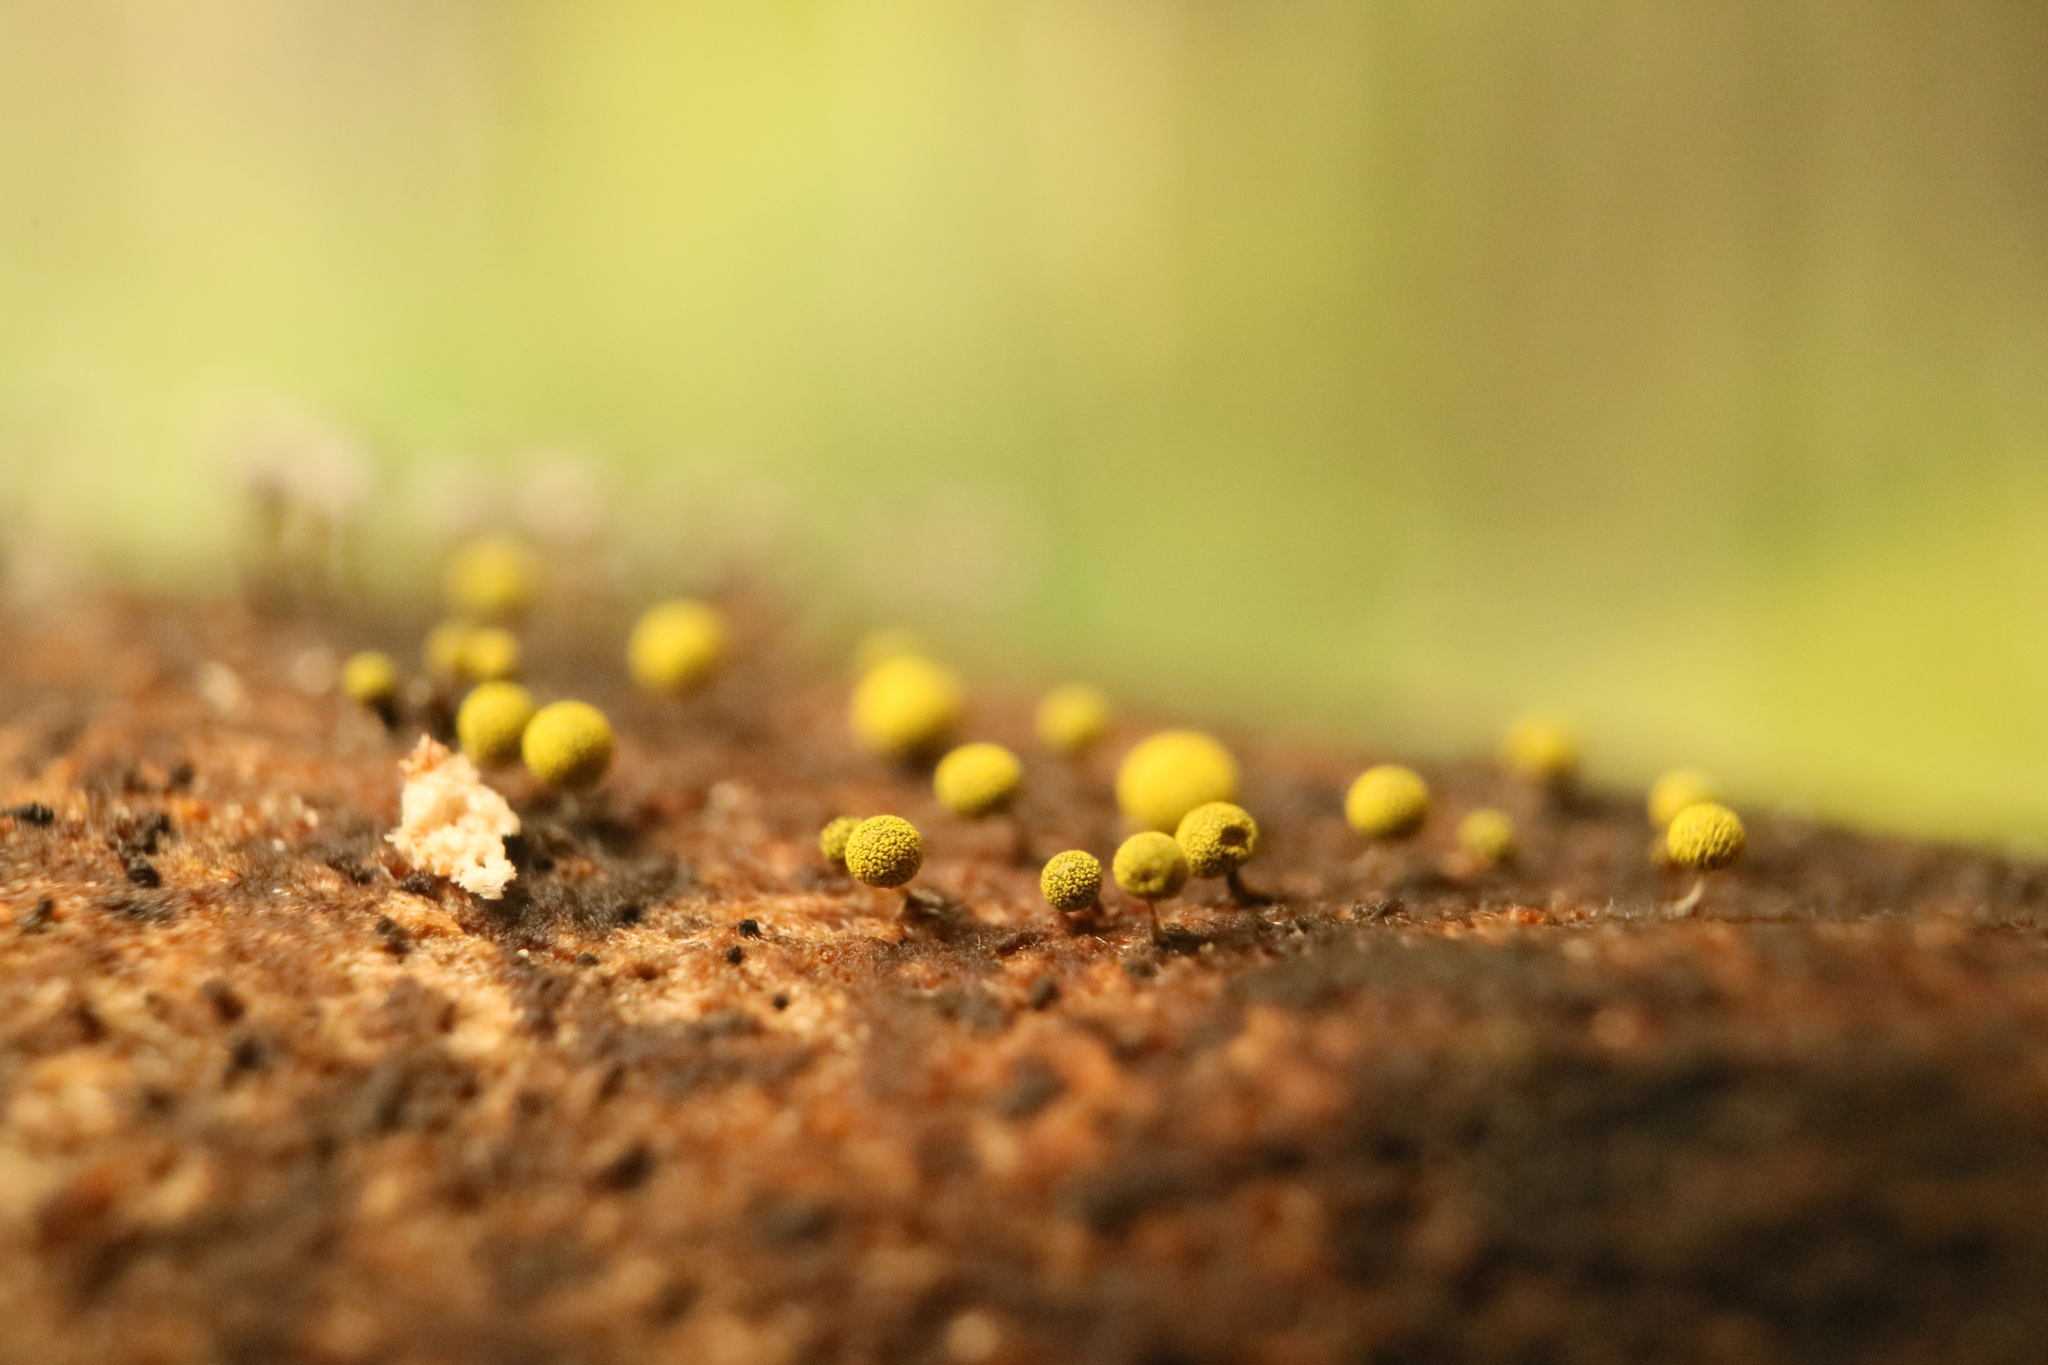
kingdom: Protozoa
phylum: Mycetozoa
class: Myxomycetes
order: Physarales
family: Physaraceae
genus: Physarum
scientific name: Physarum viride
